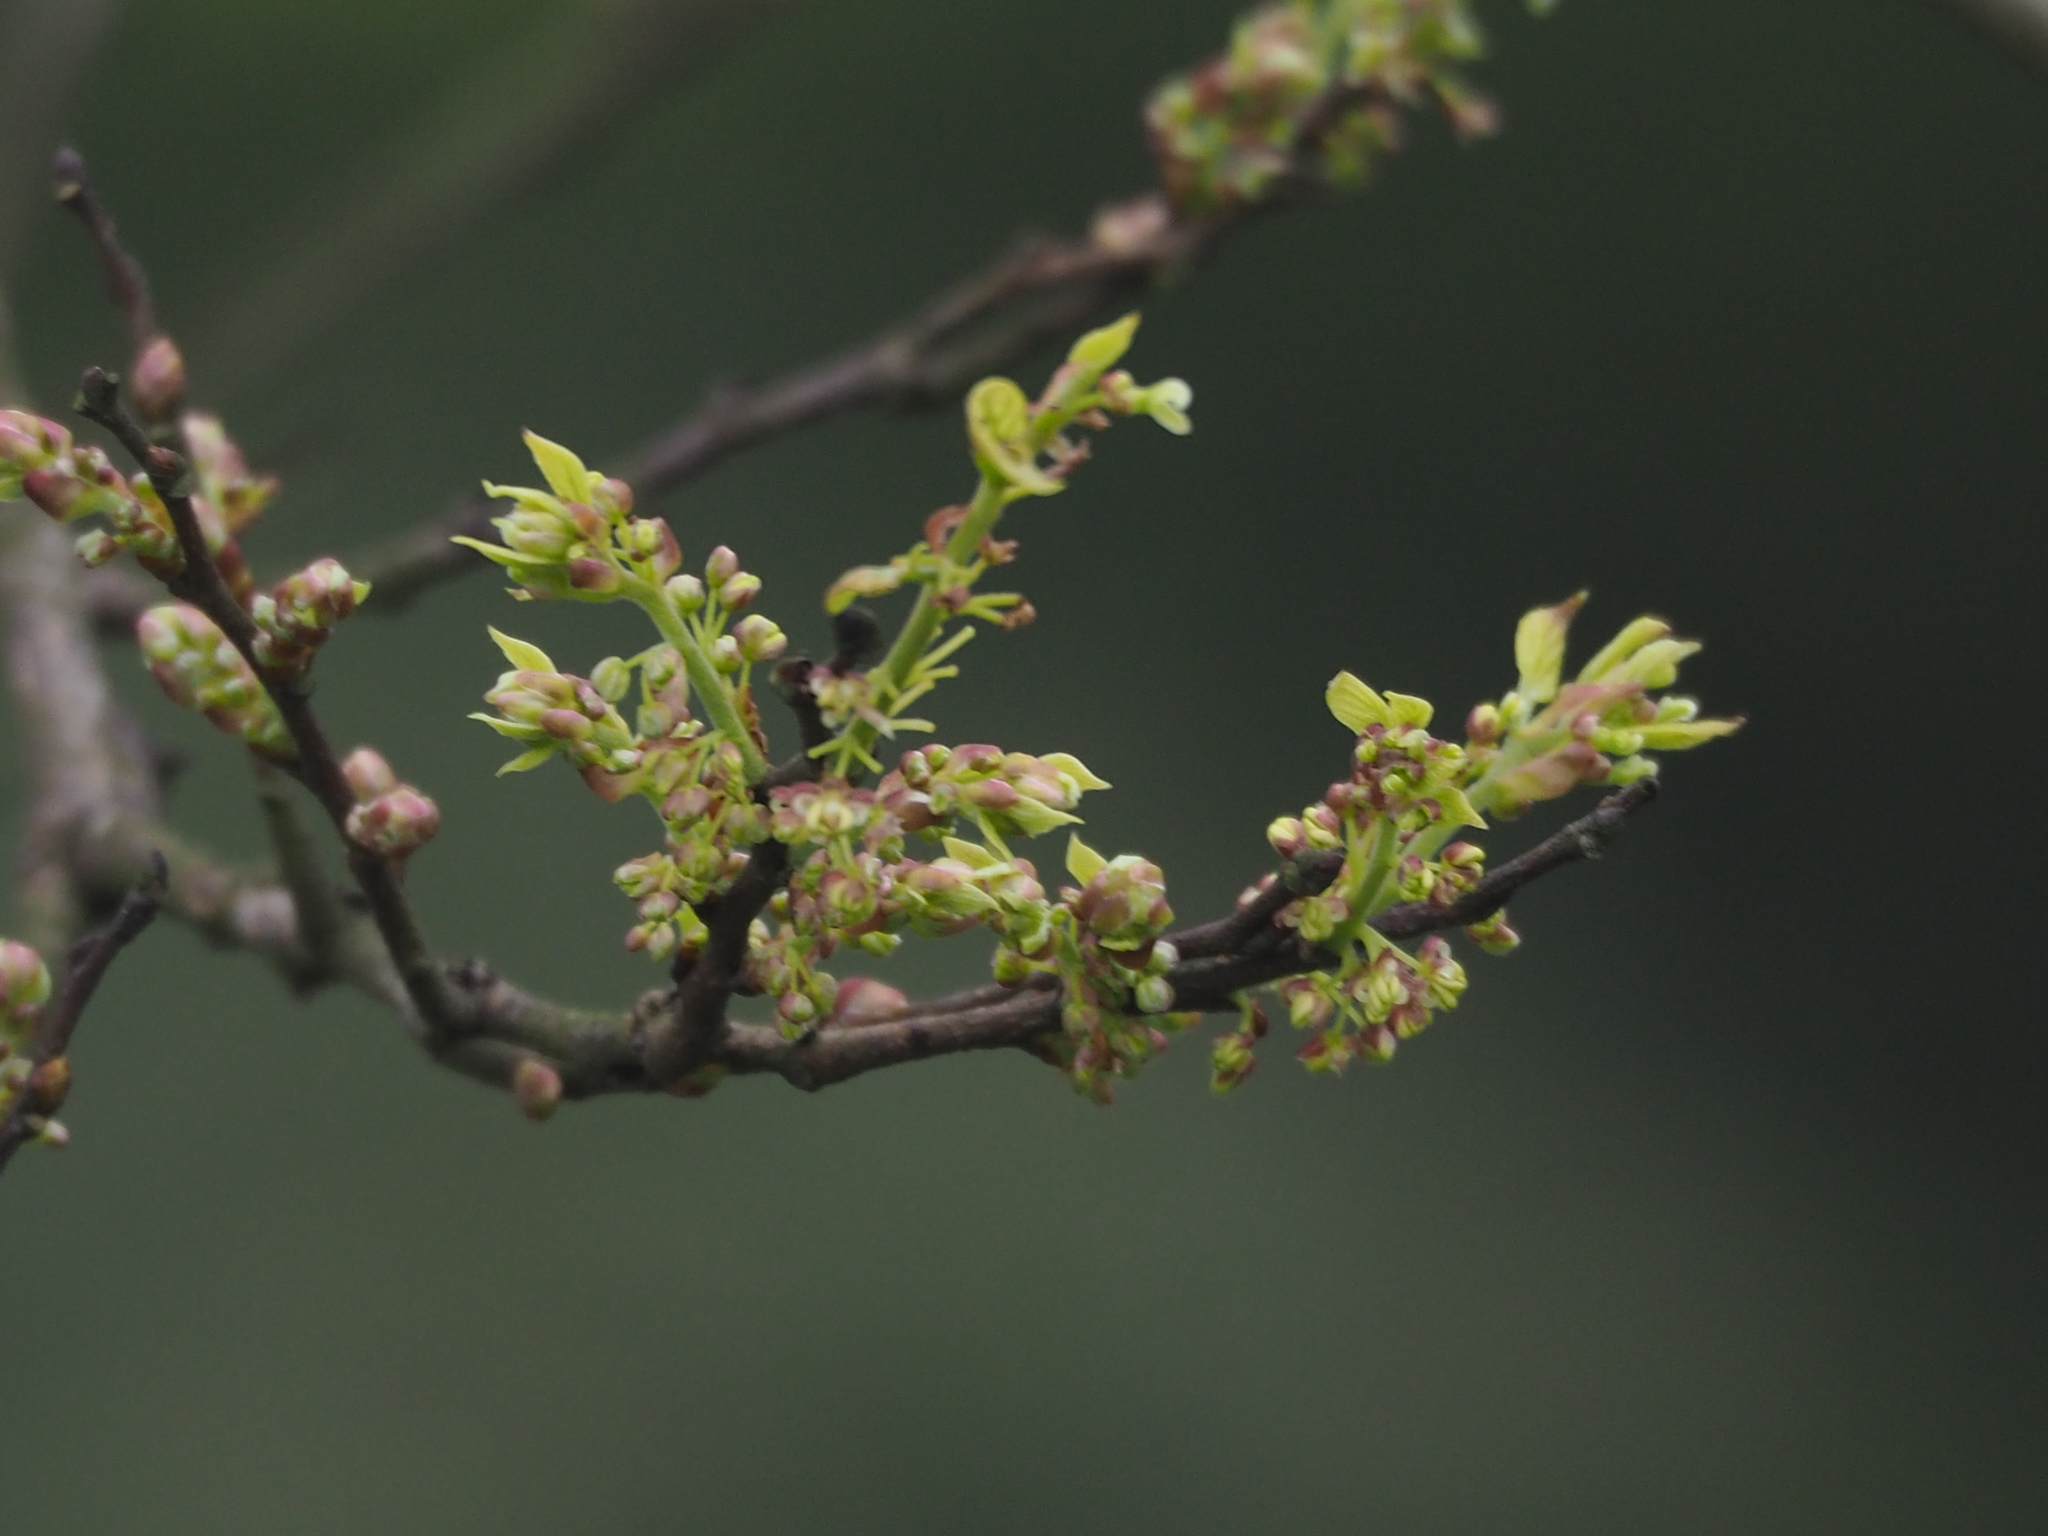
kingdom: Plantae
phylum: Tracheophyta
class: Magnoliopsida
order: Rosales
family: Cannabaceae
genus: Celtis
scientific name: Celtis sinensis
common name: Chinese hackberry
